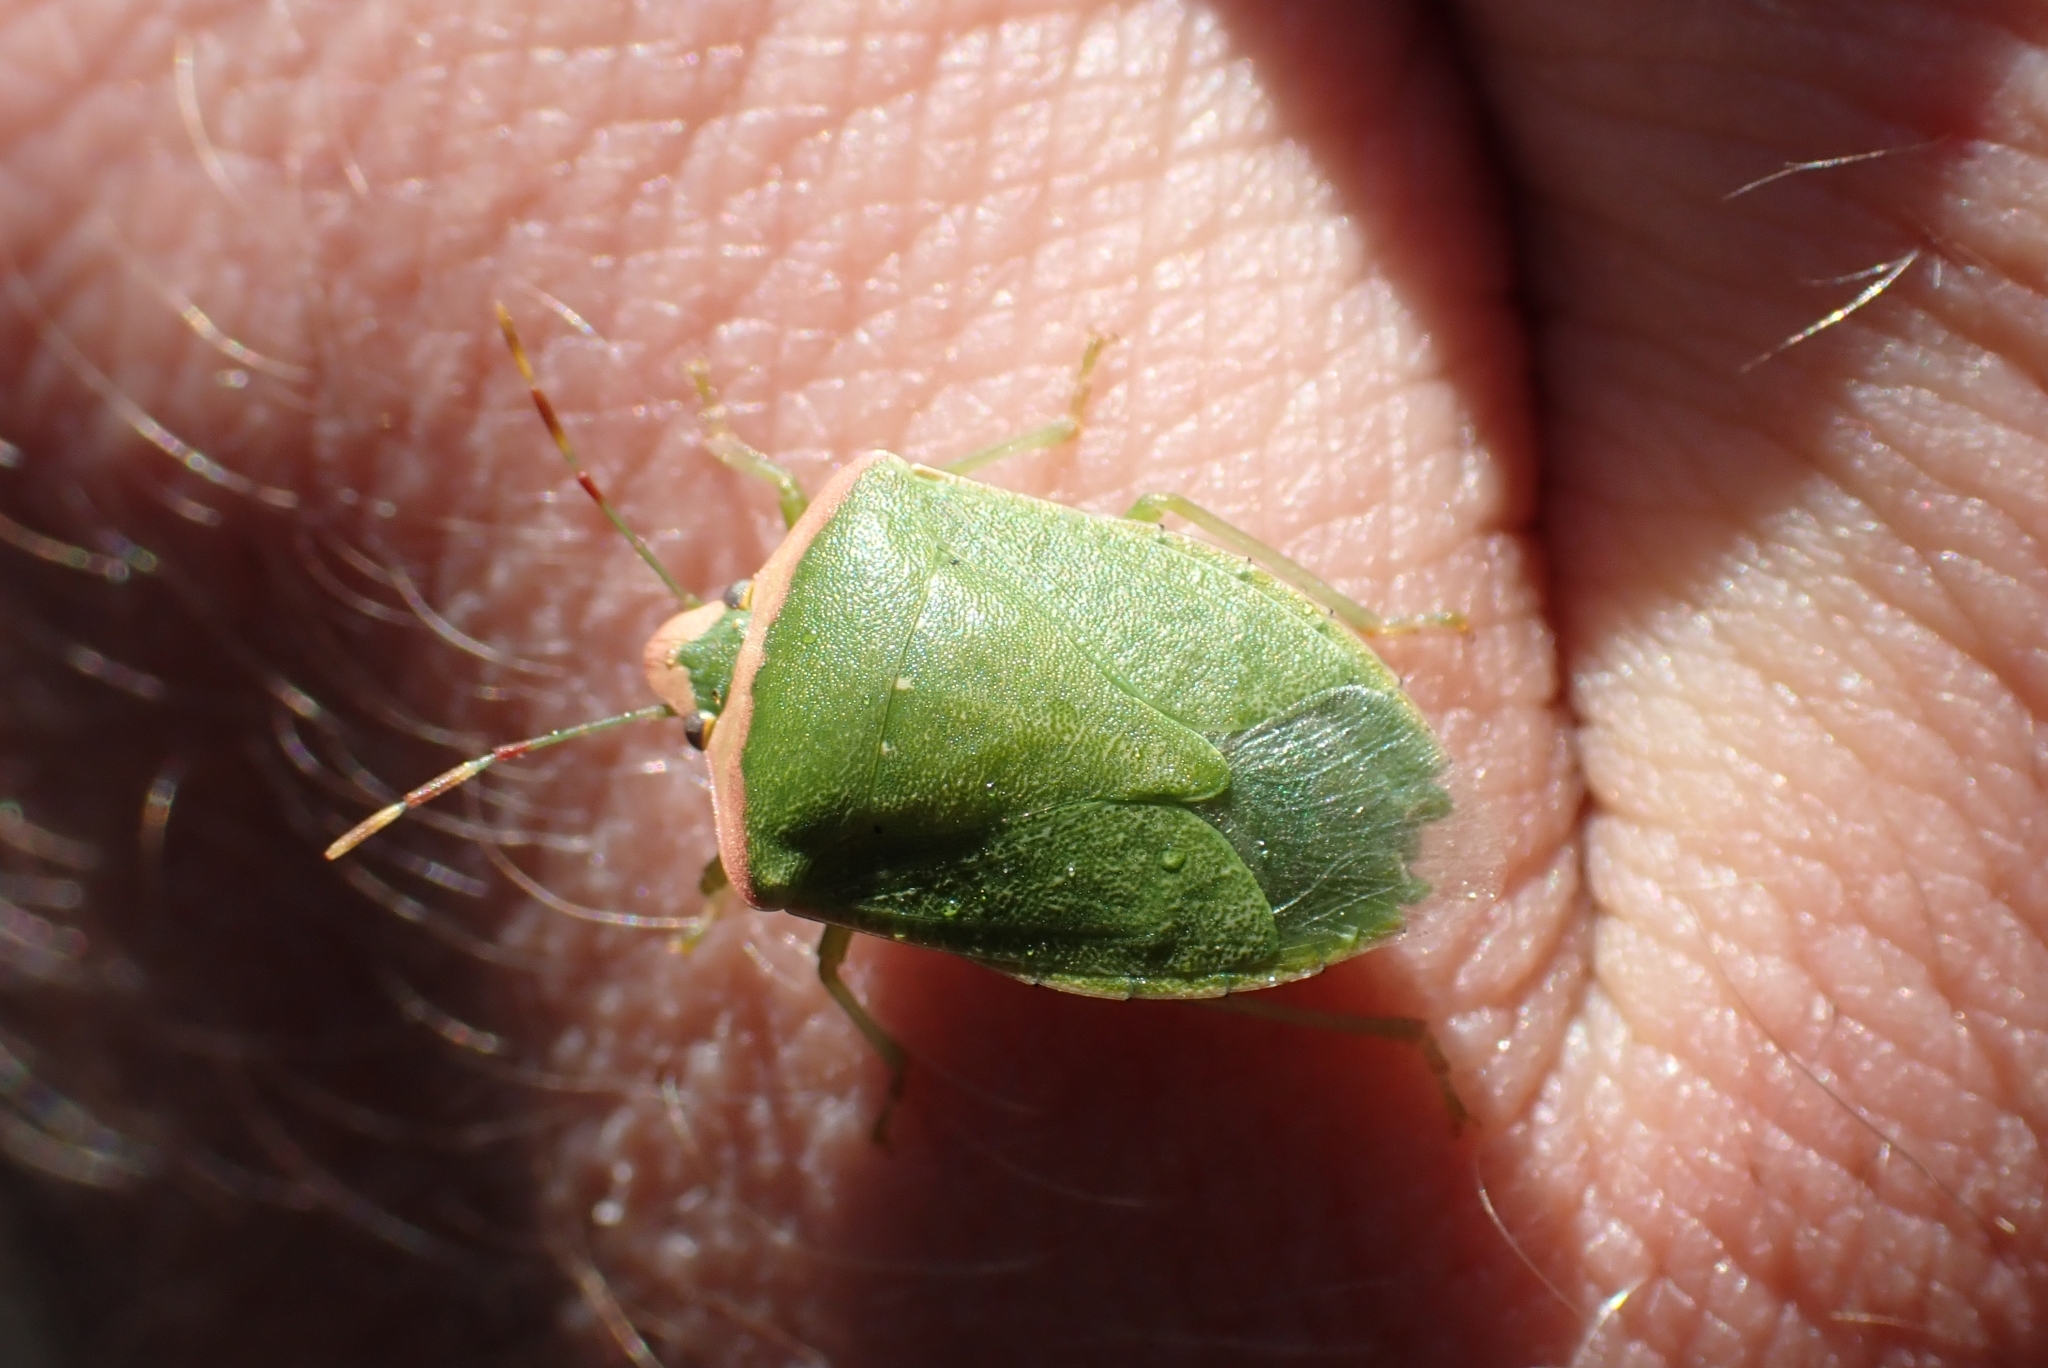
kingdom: Animalia
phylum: Arthropoda
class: Insecta
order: Hemiptera
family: Pentatomidae
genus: Nezara
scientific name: Nezara viridula
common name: Southern green stink bug
